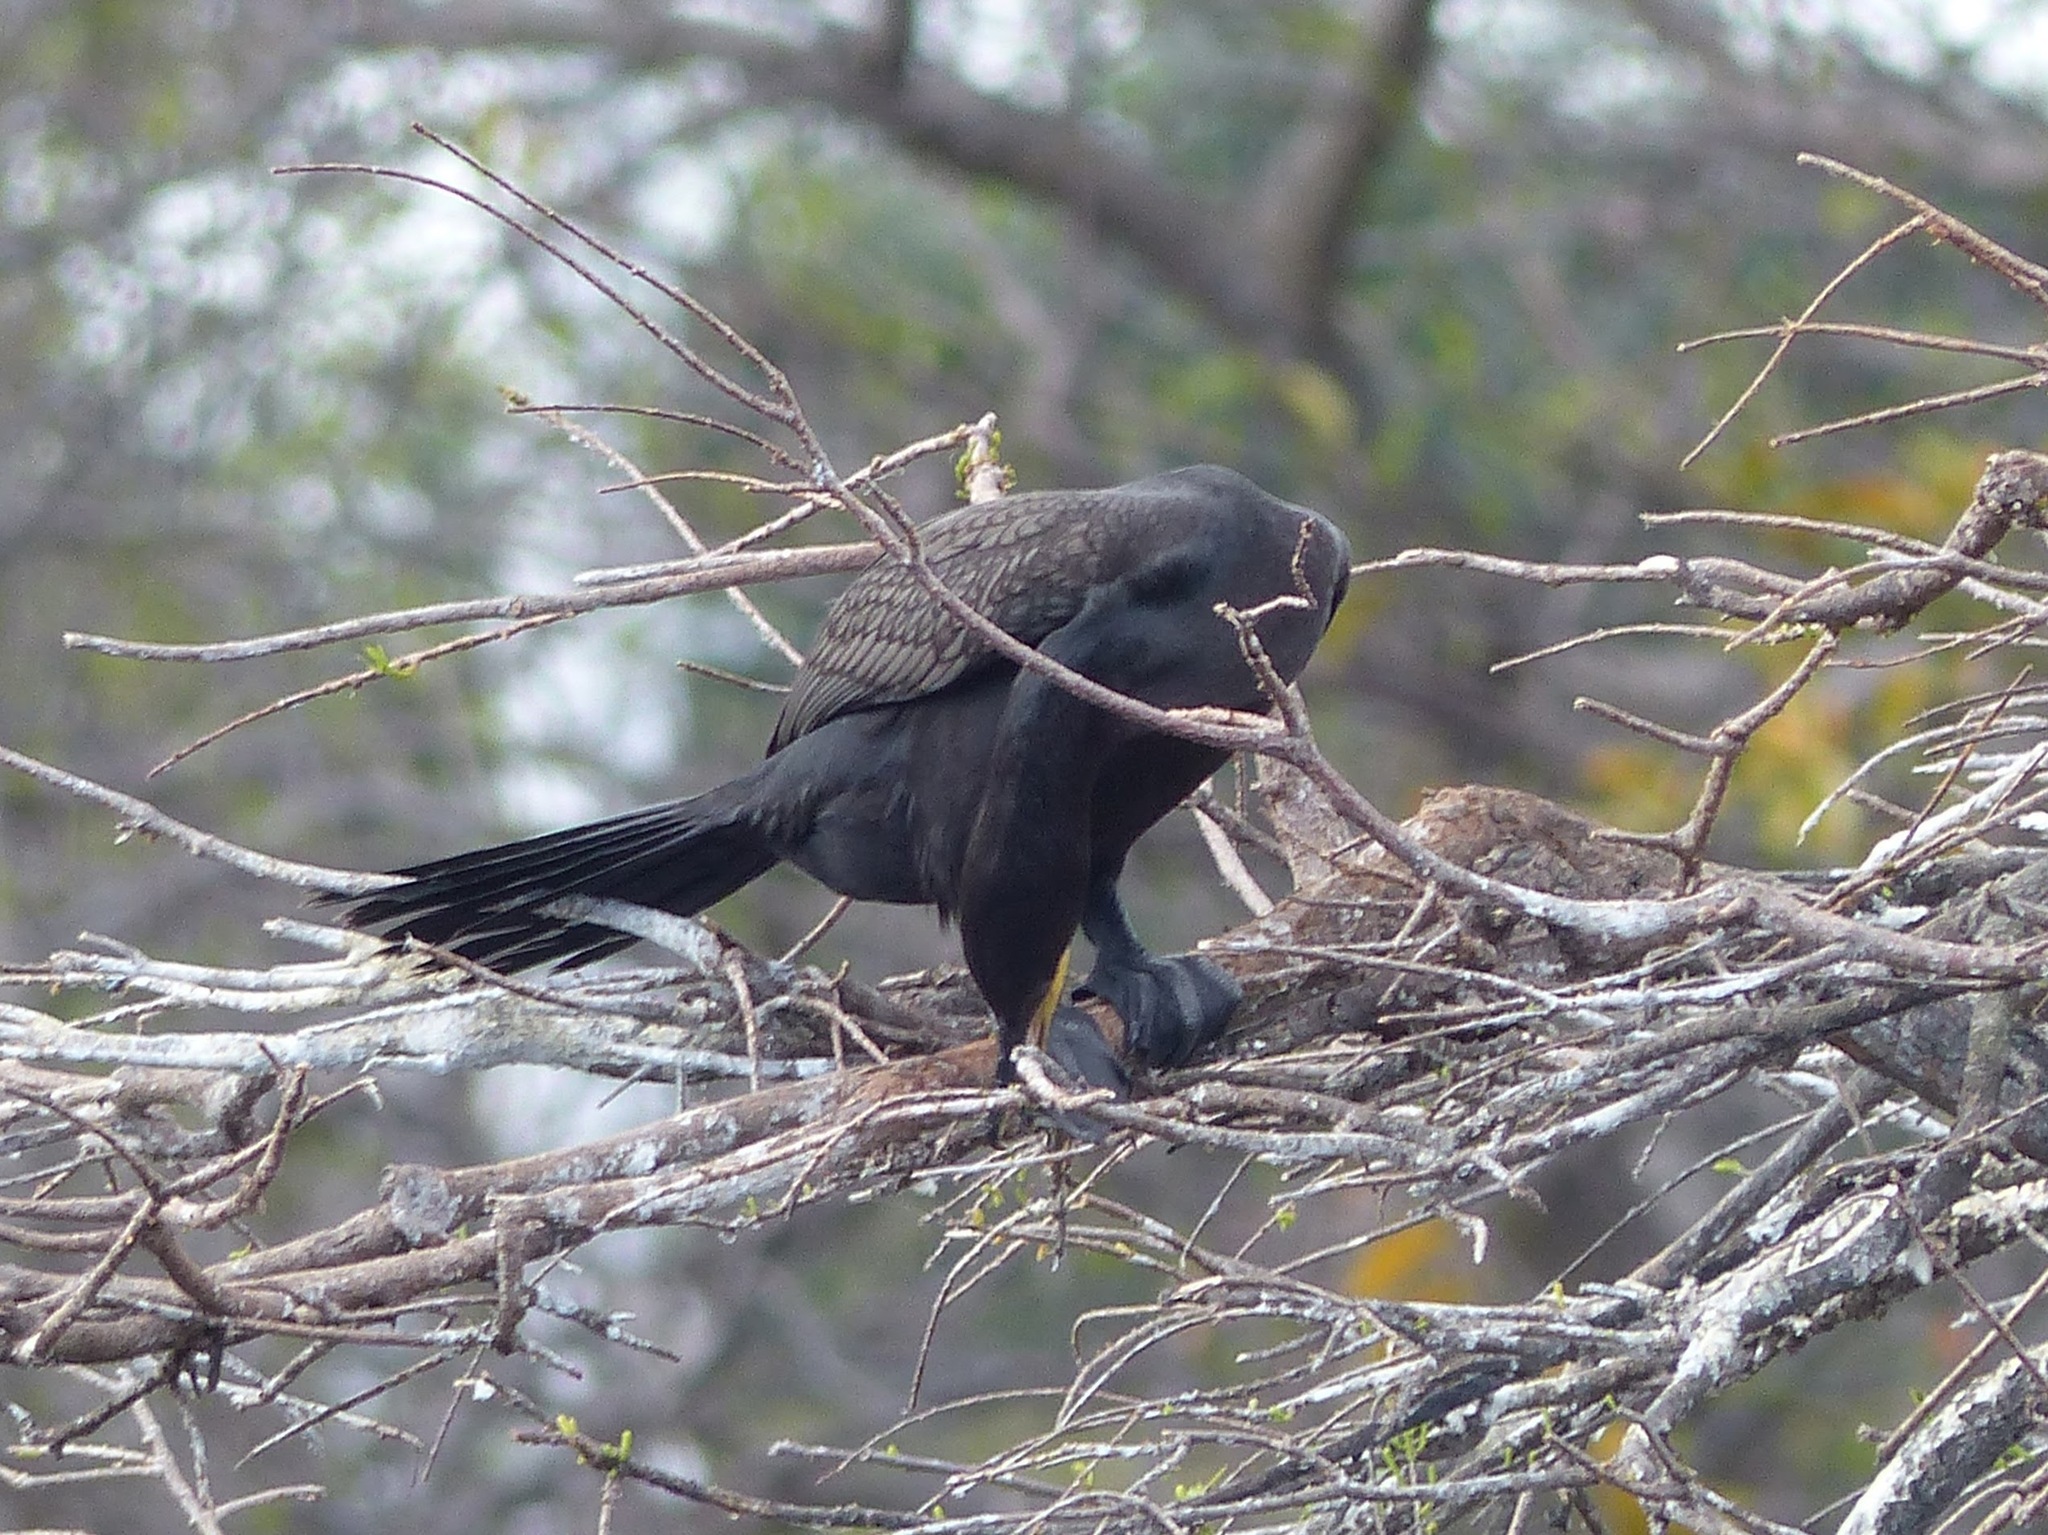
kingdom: Animalia
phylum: Chordata
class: Aves
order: Suliformes
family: Phalacrocoracidae
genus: Phalacrocorax
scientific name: Phalacrocorax auritus
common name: Double-crested cormorant
